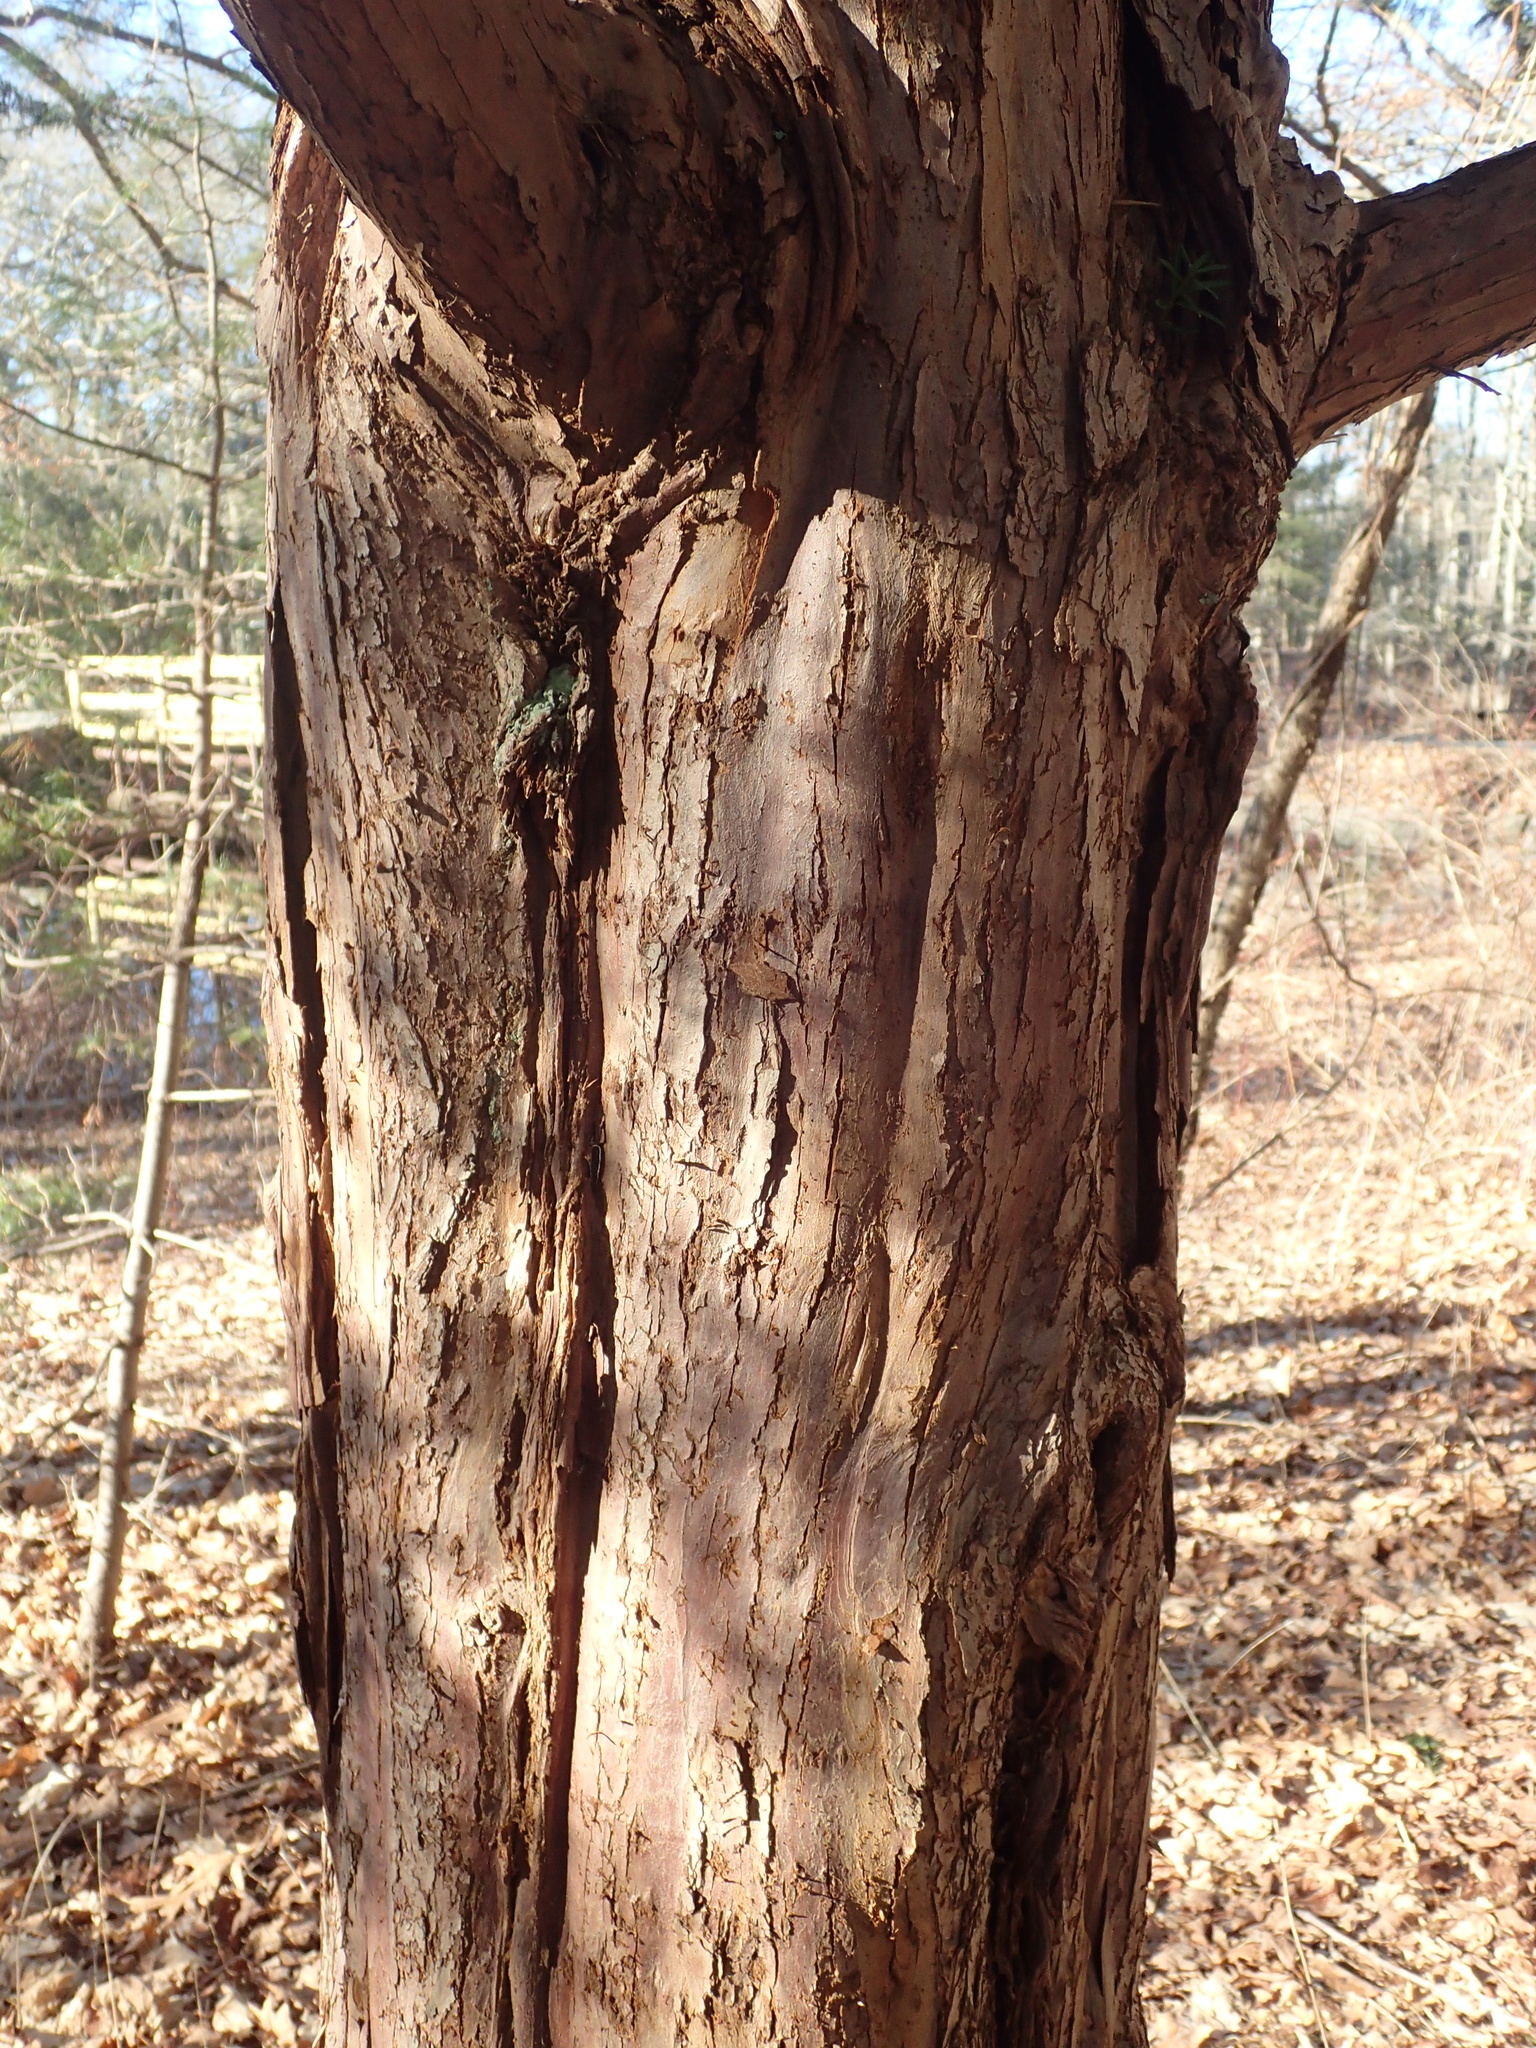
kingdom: Plantae
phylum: Tracheophyta
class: Pinopsida
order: Pinales
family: Taxaceae
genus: Taxus
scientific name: Taxus cuspidata
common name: Japanese yew
